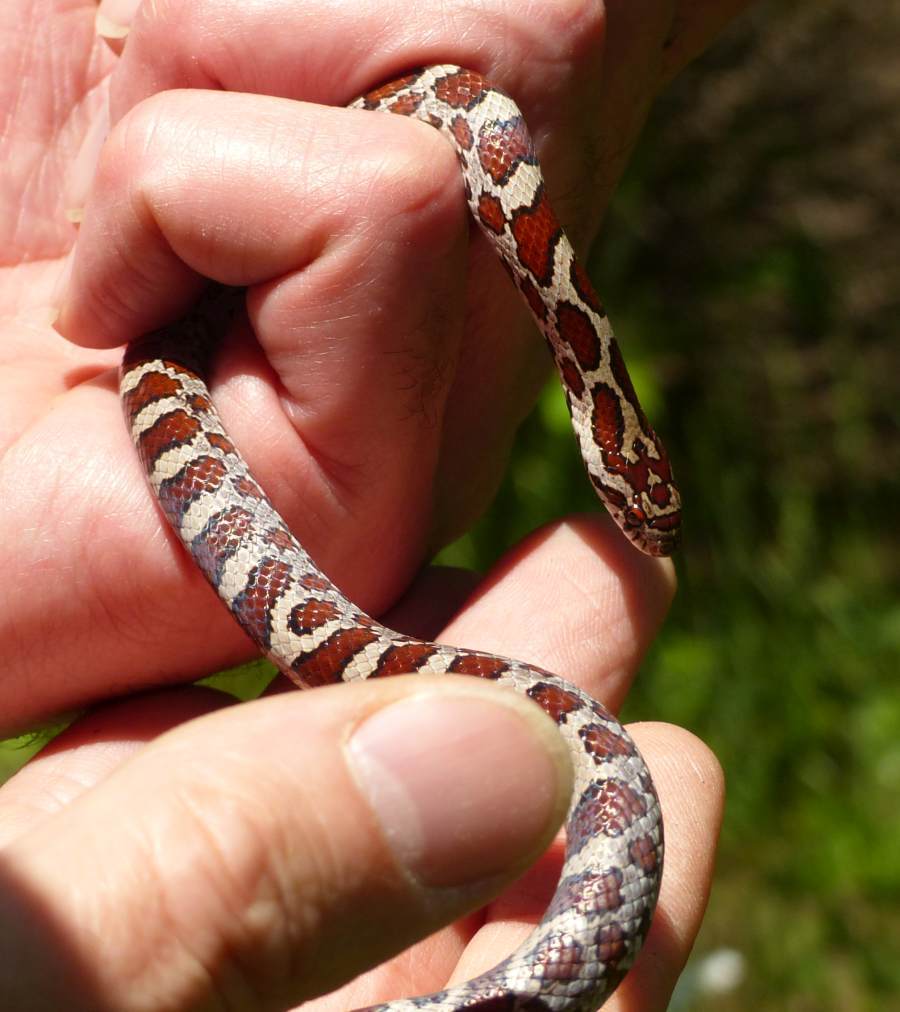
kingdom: Animalia
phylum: Chordata
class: Squamata
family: Colubridae
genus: Lampropeltis
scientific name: Lampropeltis triangulum
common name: Eastern milksnake
